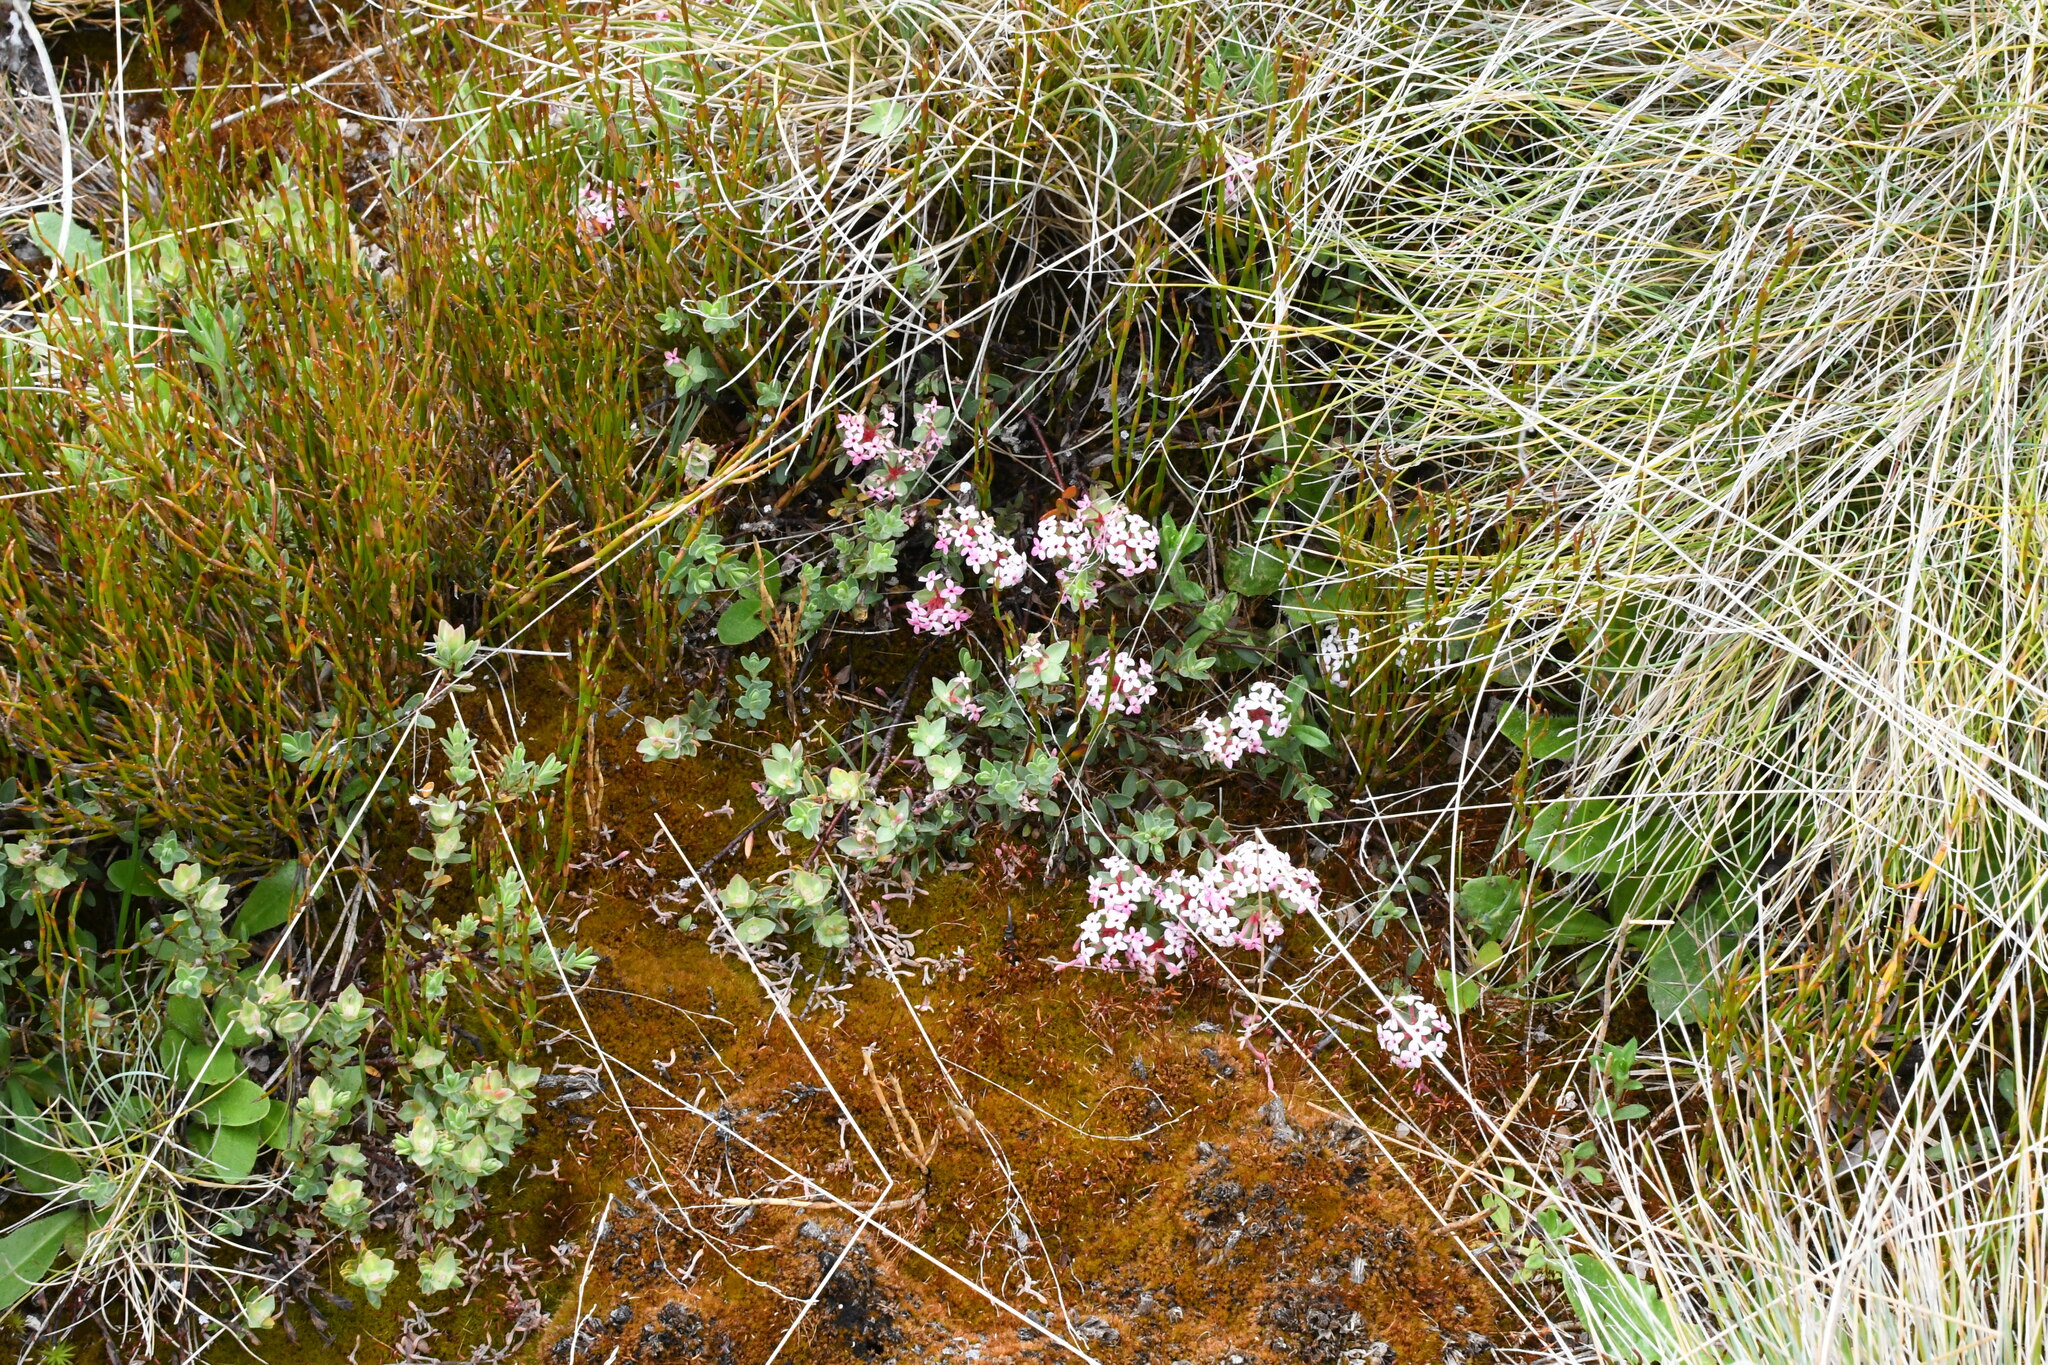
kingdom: Plantae
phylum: Tracheophyta
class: Magnoliopsida
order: Malvales
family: Thymelaeaceae
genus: Pimelea
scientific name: Pimelea alpina
